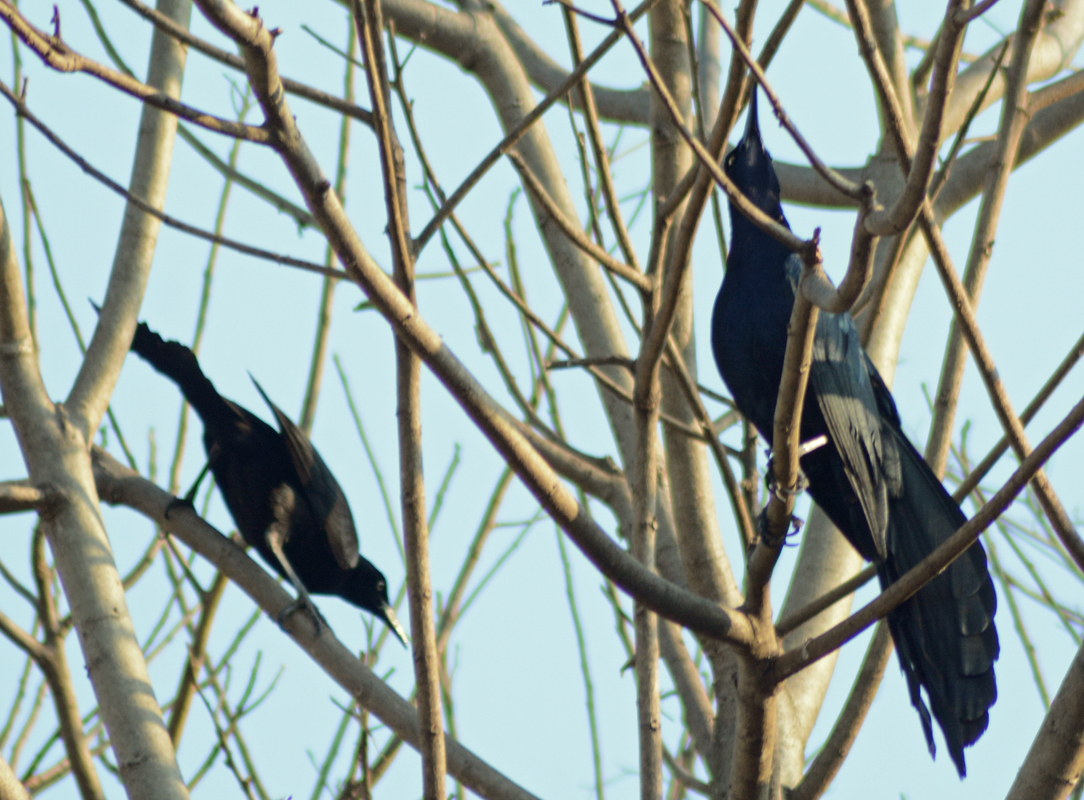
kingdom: Animalia
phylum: Chordata
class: Aves
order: Passeriformes
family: Icteridae
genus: Quiscalus
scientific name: Quiscalus mexicanus
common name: Great-tailed grackle
